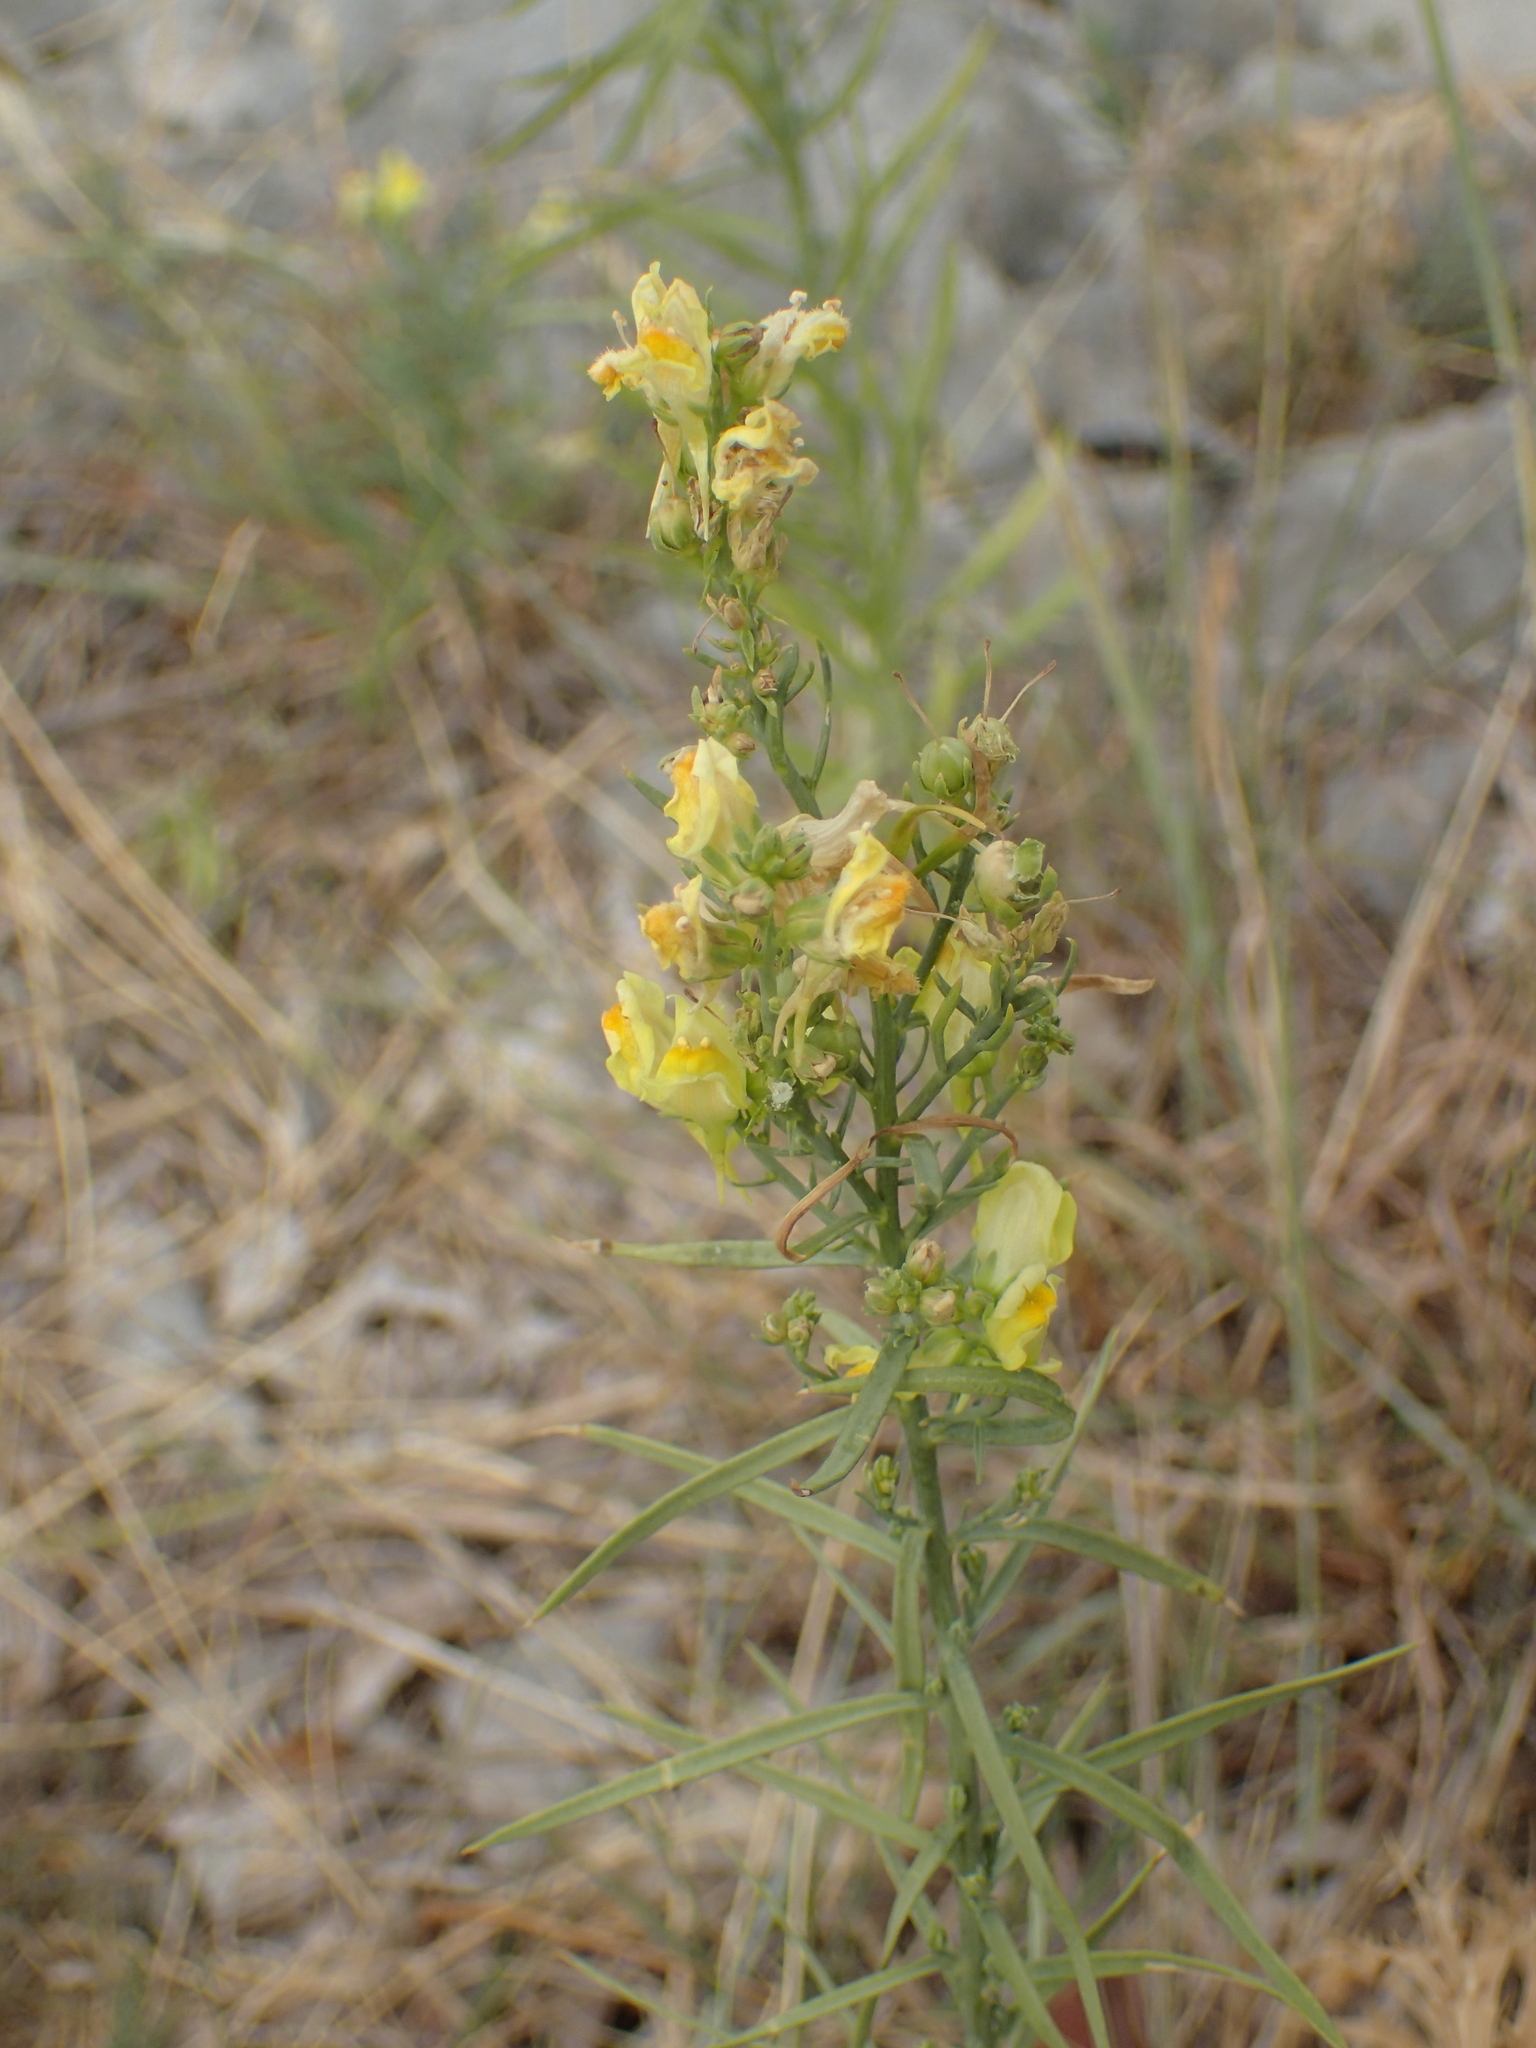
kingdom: Plantae
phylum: Tracheophyta
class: Magnoliopsida
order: Lamiales
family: Plantaginaceae
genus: Linaria
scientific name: Linaria vulgaris
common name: Butter and eggs
